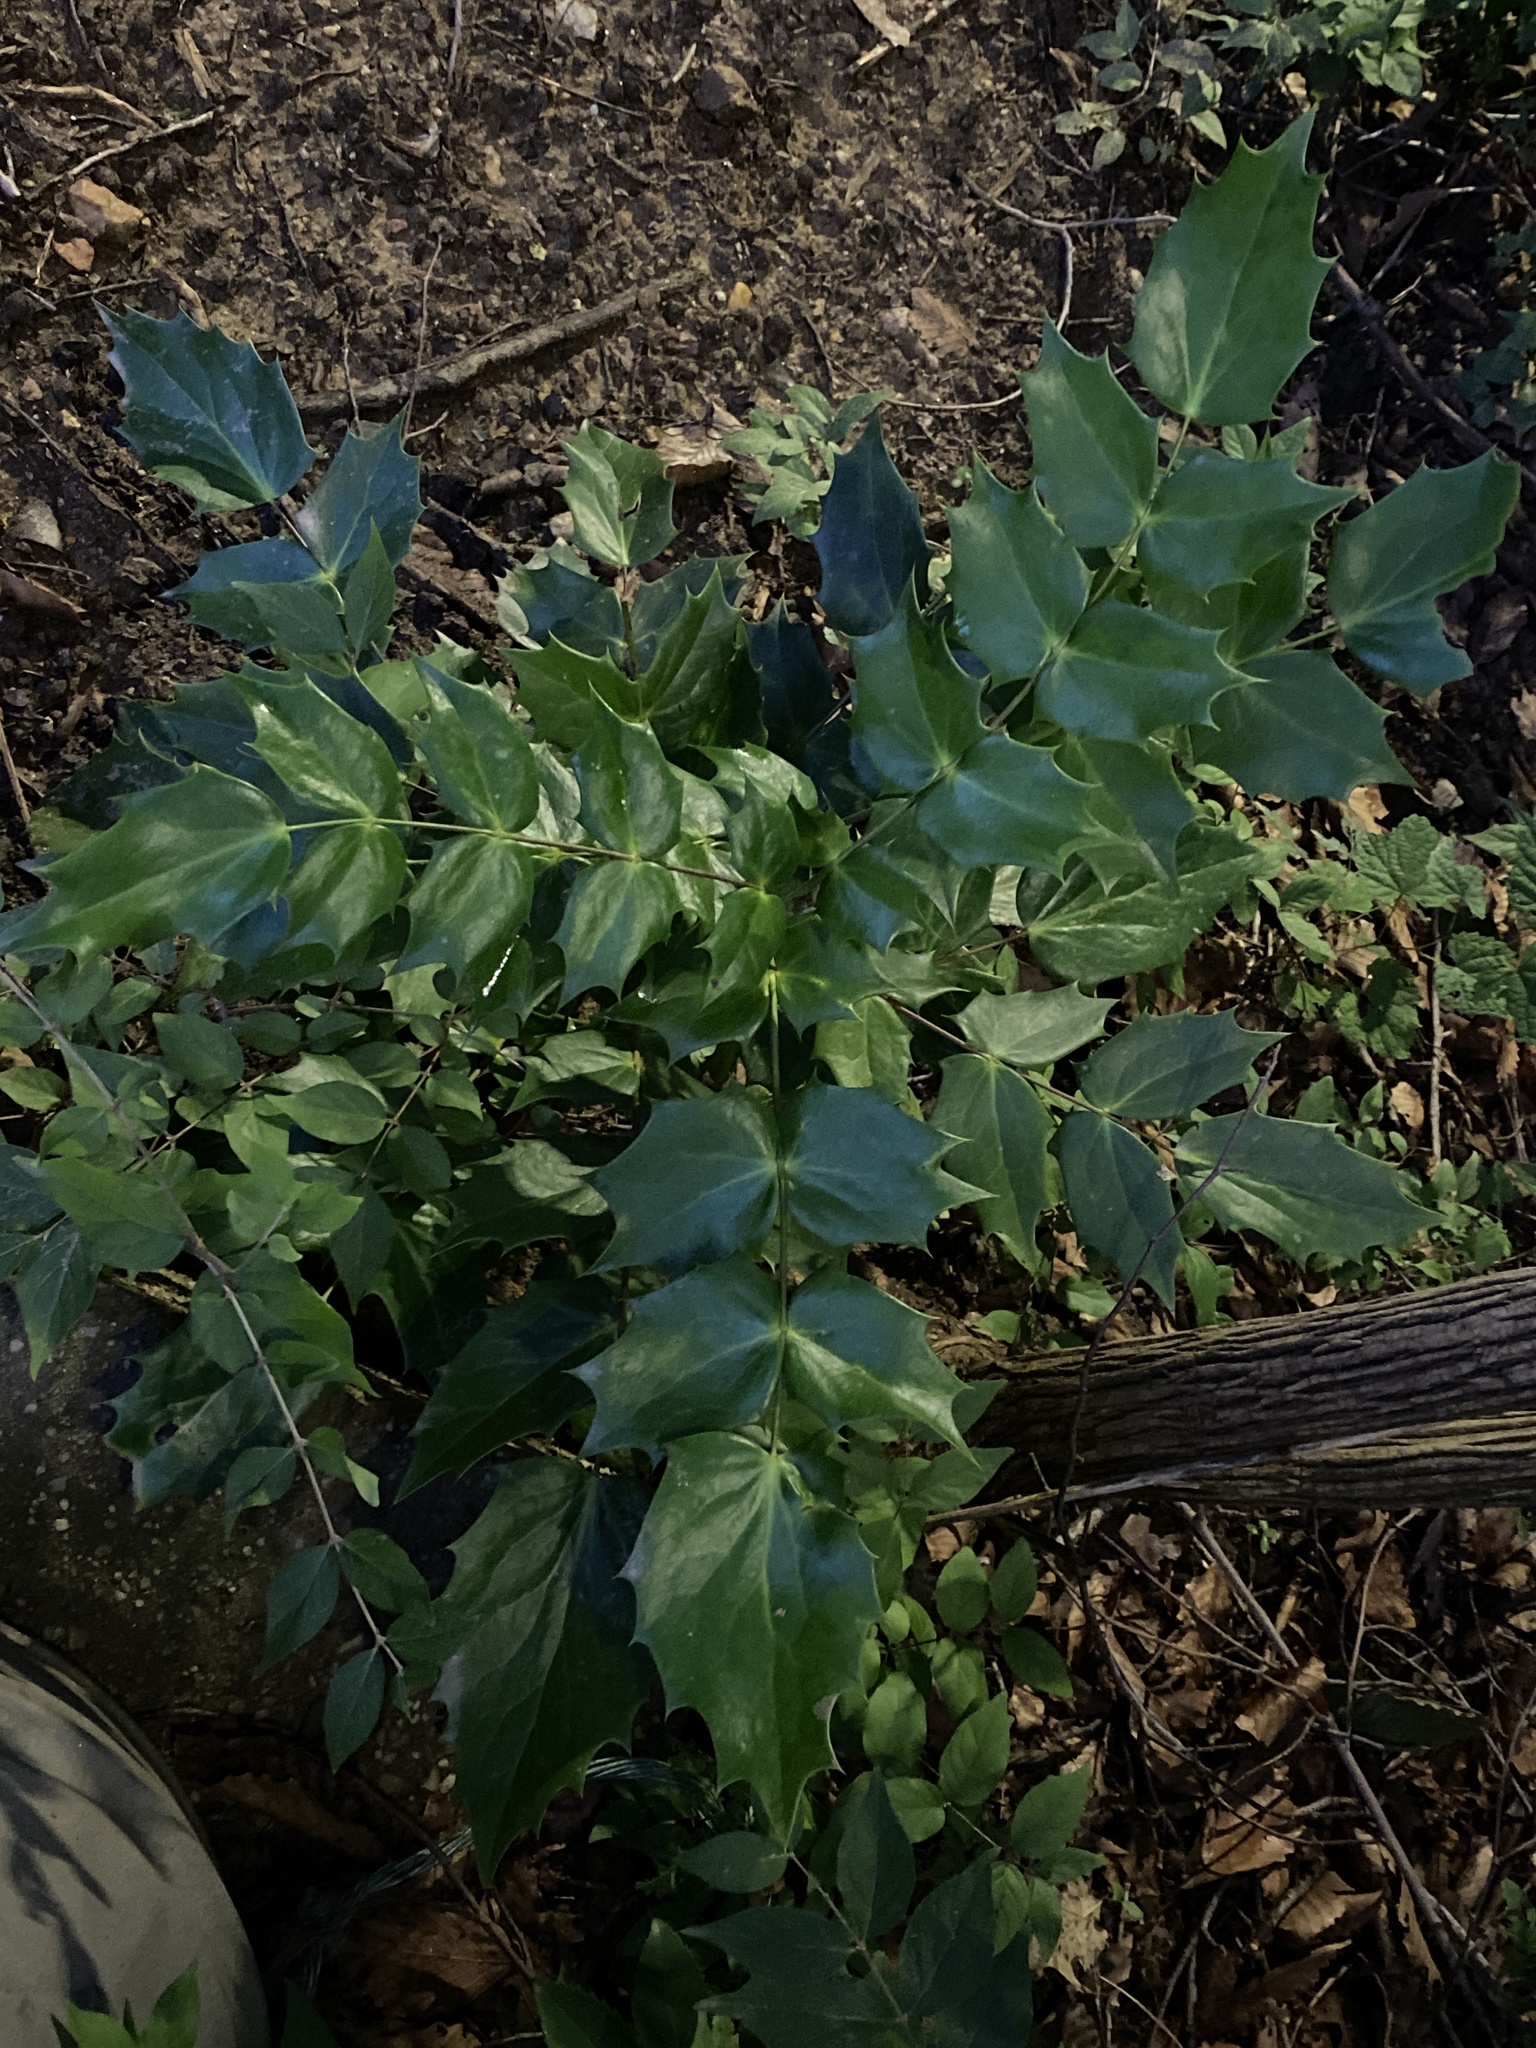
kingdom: Plantae
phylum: Tracheophyta
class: Magnoliopsida
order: Ranunculales
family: Berberidaceae
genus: Mahonia
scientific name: Mahonia bealei
